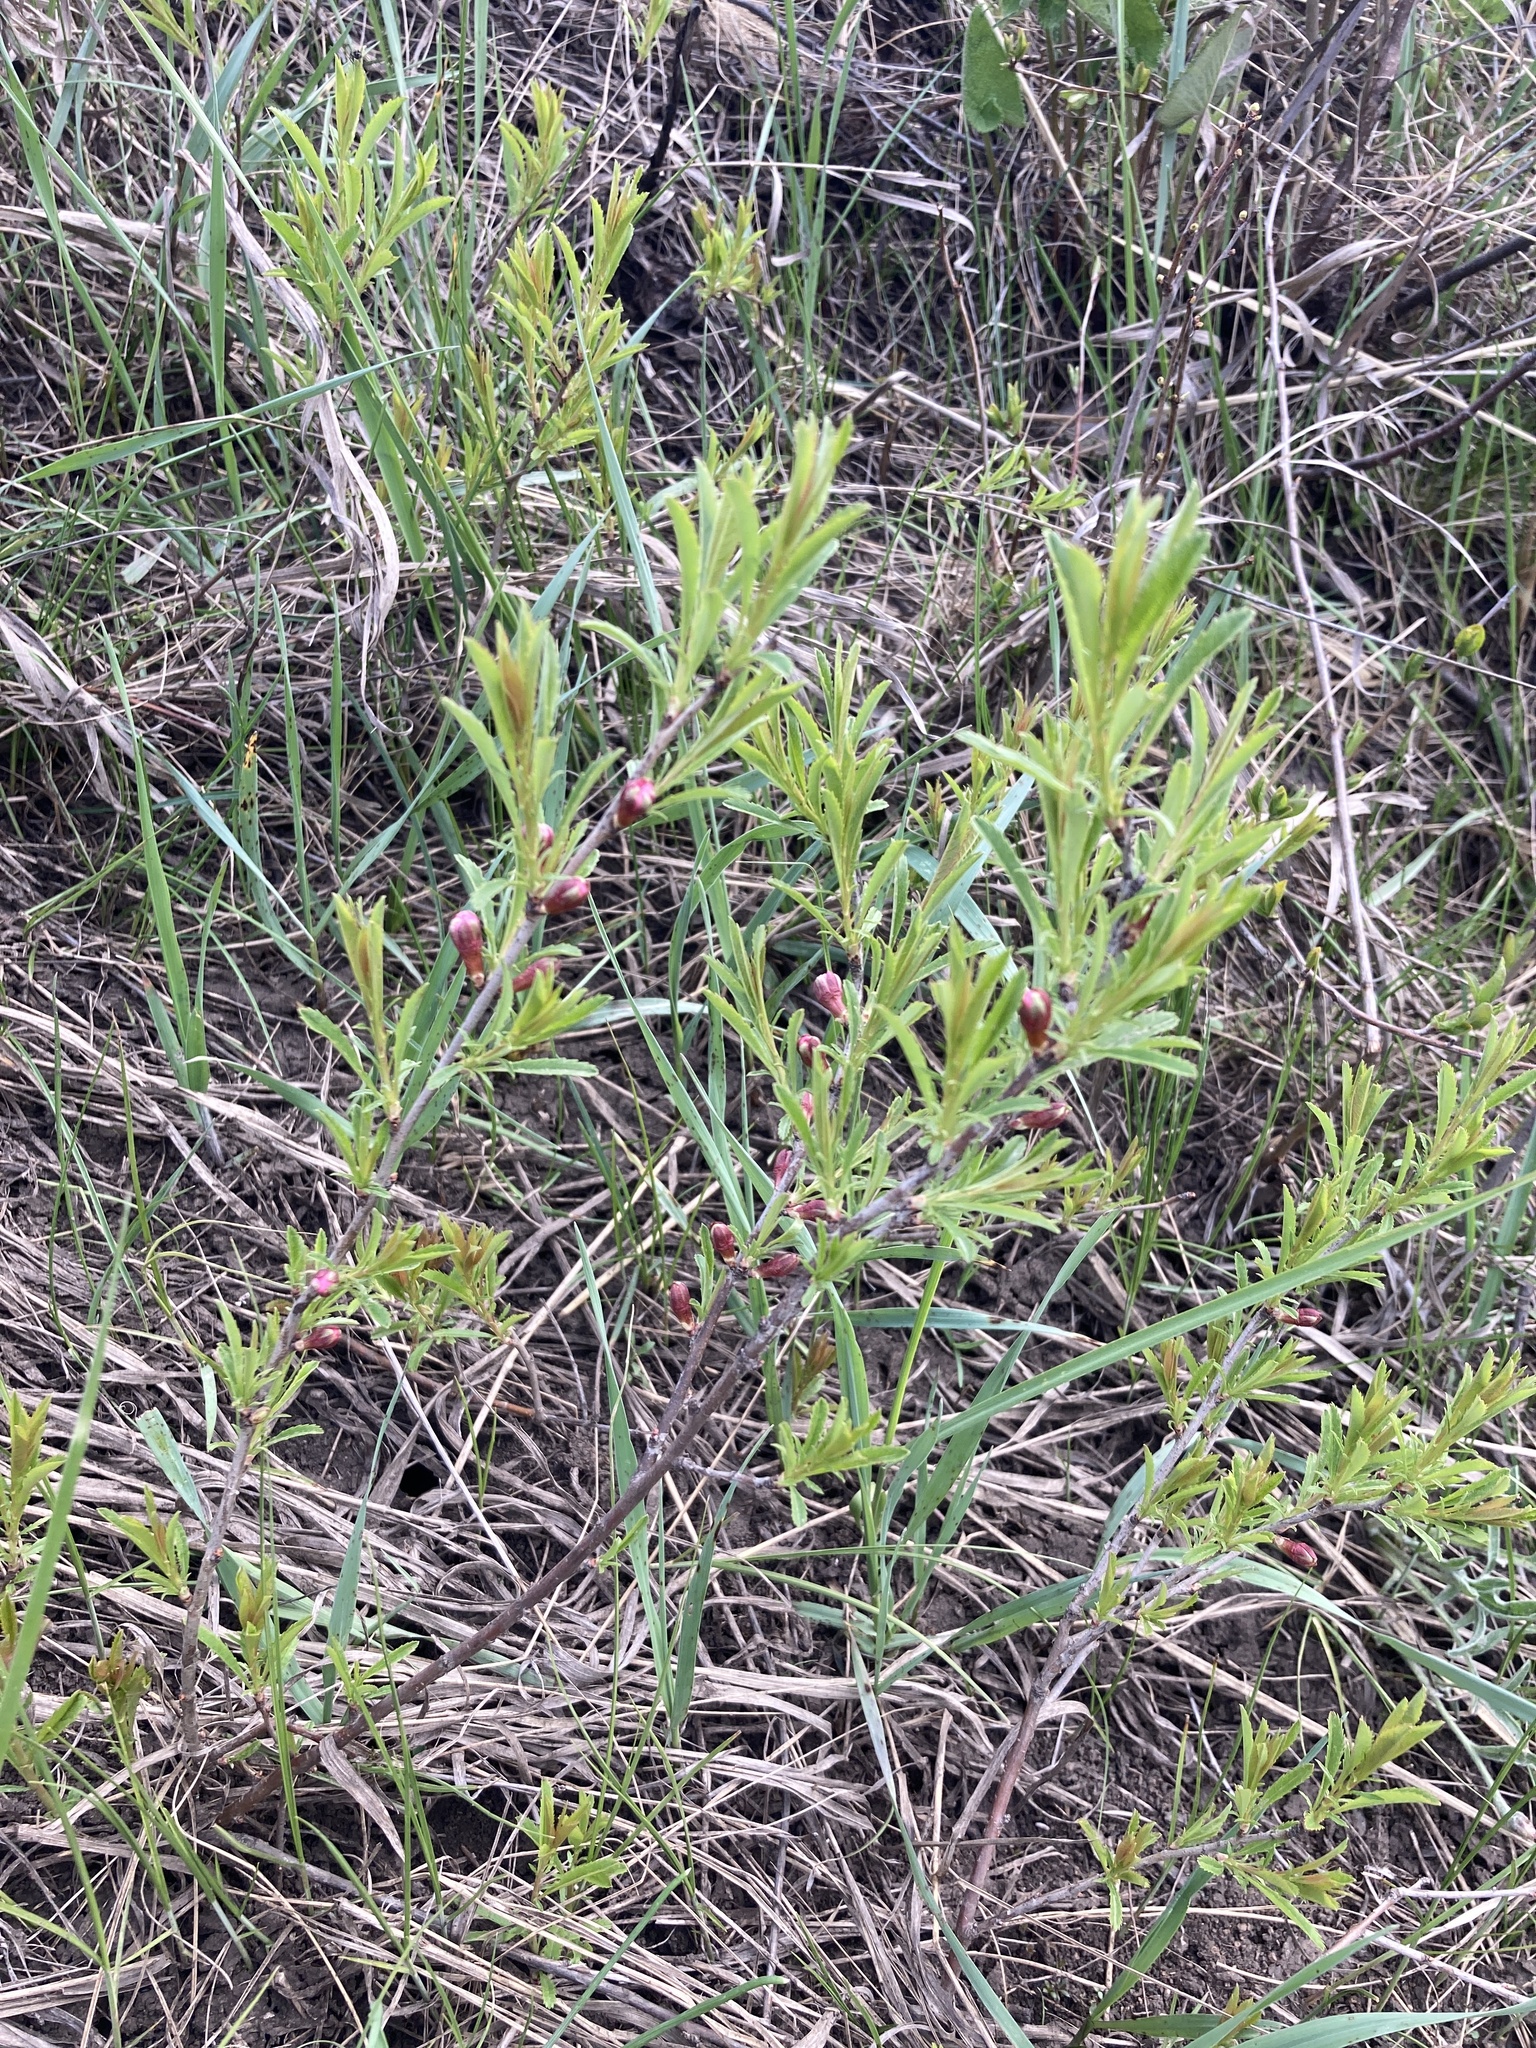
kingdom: Plantae
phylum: Tracheophyta
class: Magnoliopsida
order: Rosales
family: Rosaceae
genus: Prunus
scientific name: Prunus tenella
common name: Dwarf russian almond
